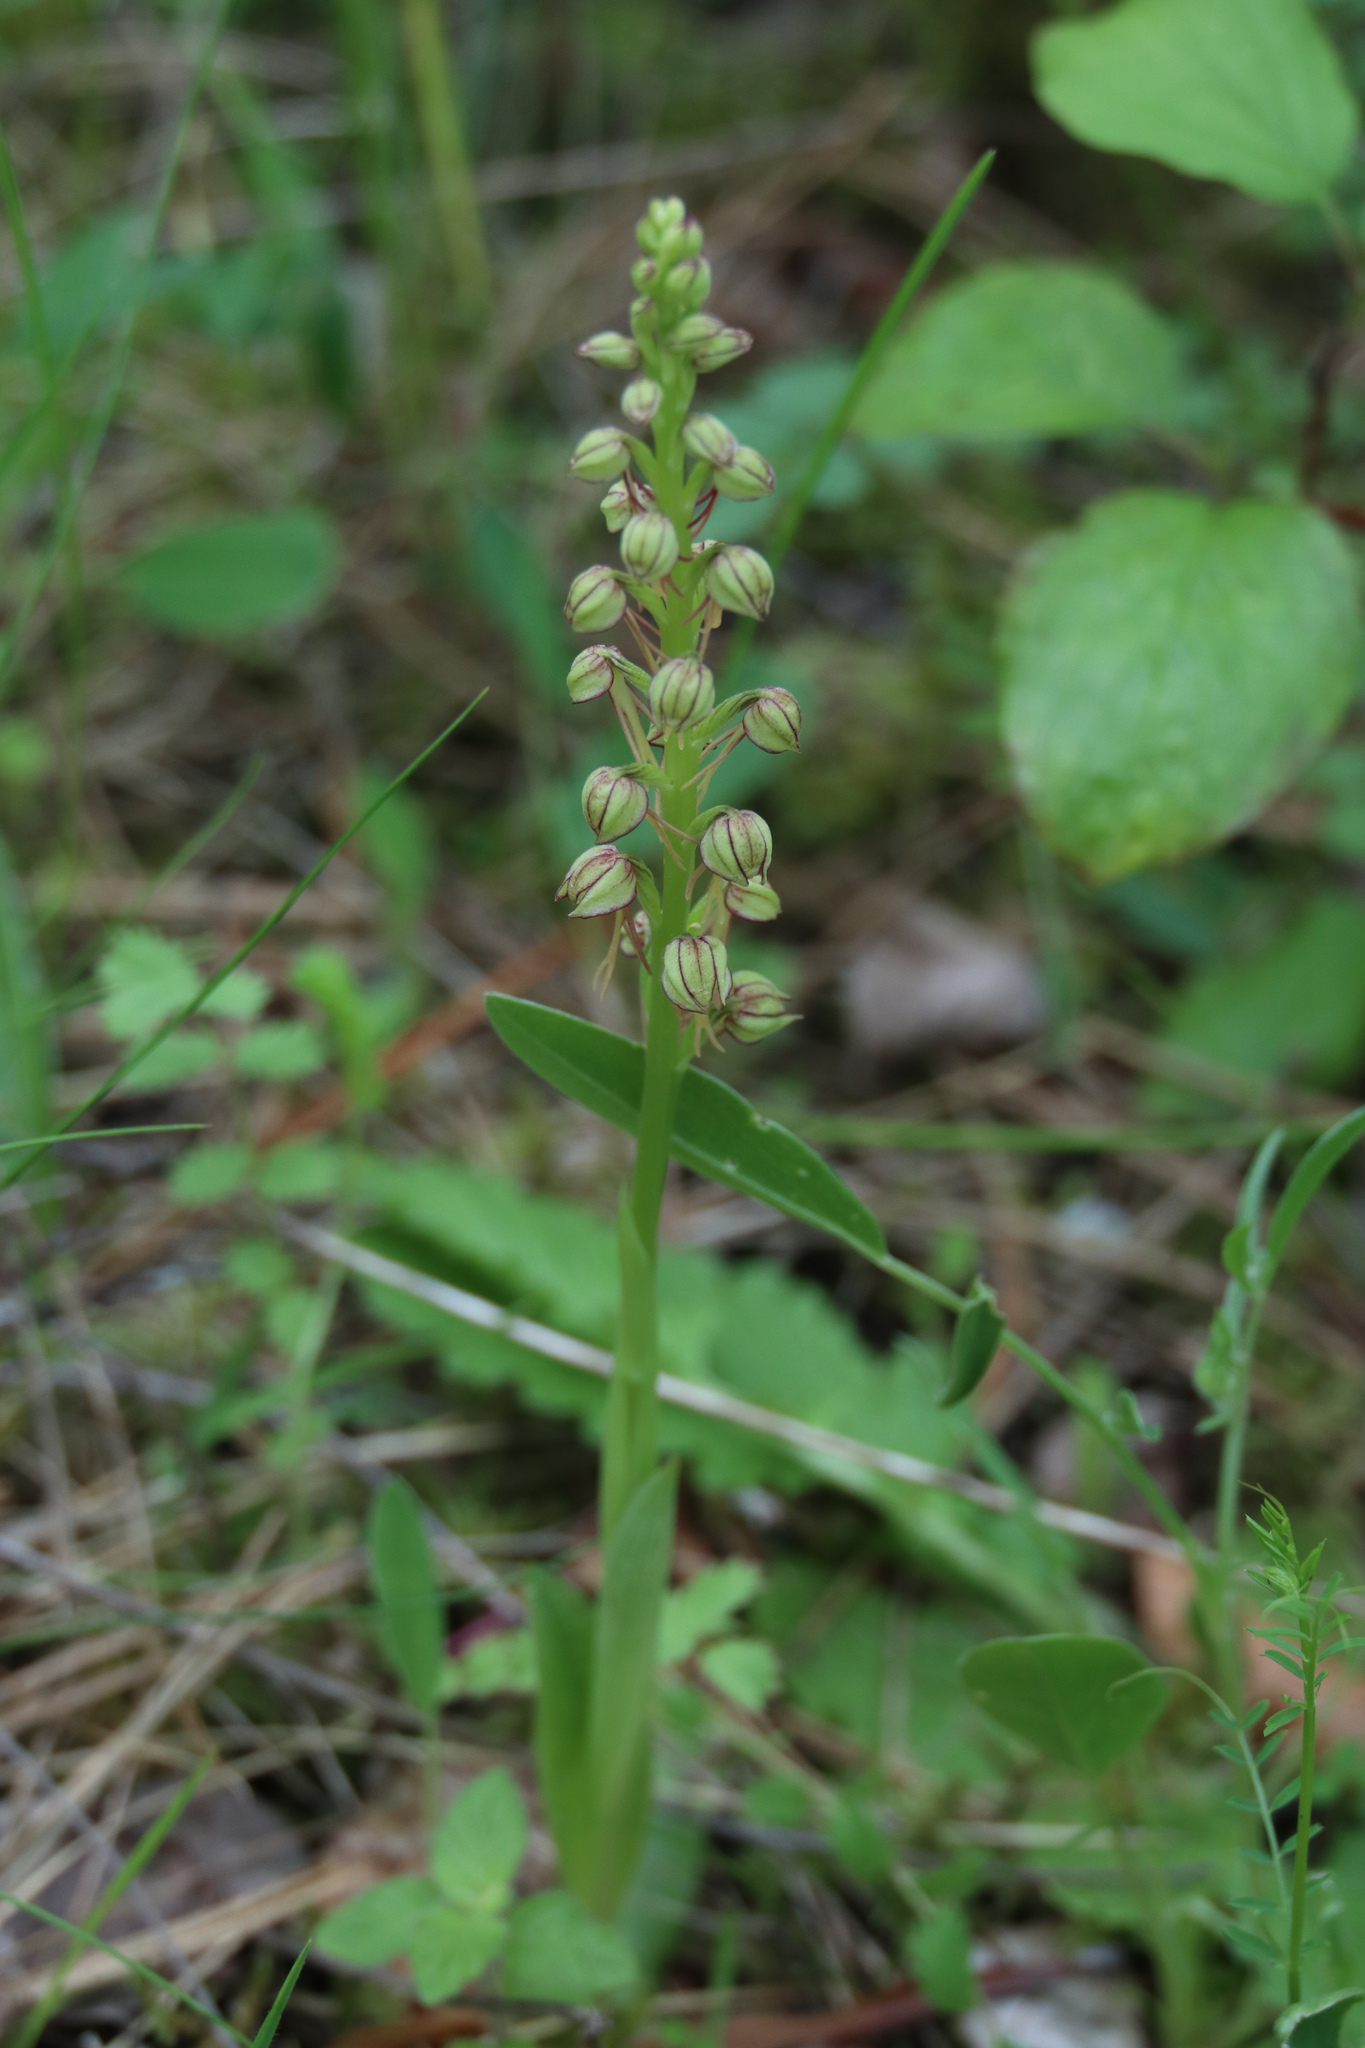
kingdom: Plantae
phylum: Tracheophyta
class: Liliopsida
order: Asparagales
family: Orchidaceae
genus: Orchis
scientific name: Orchis anthropophora
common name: Man orchid
